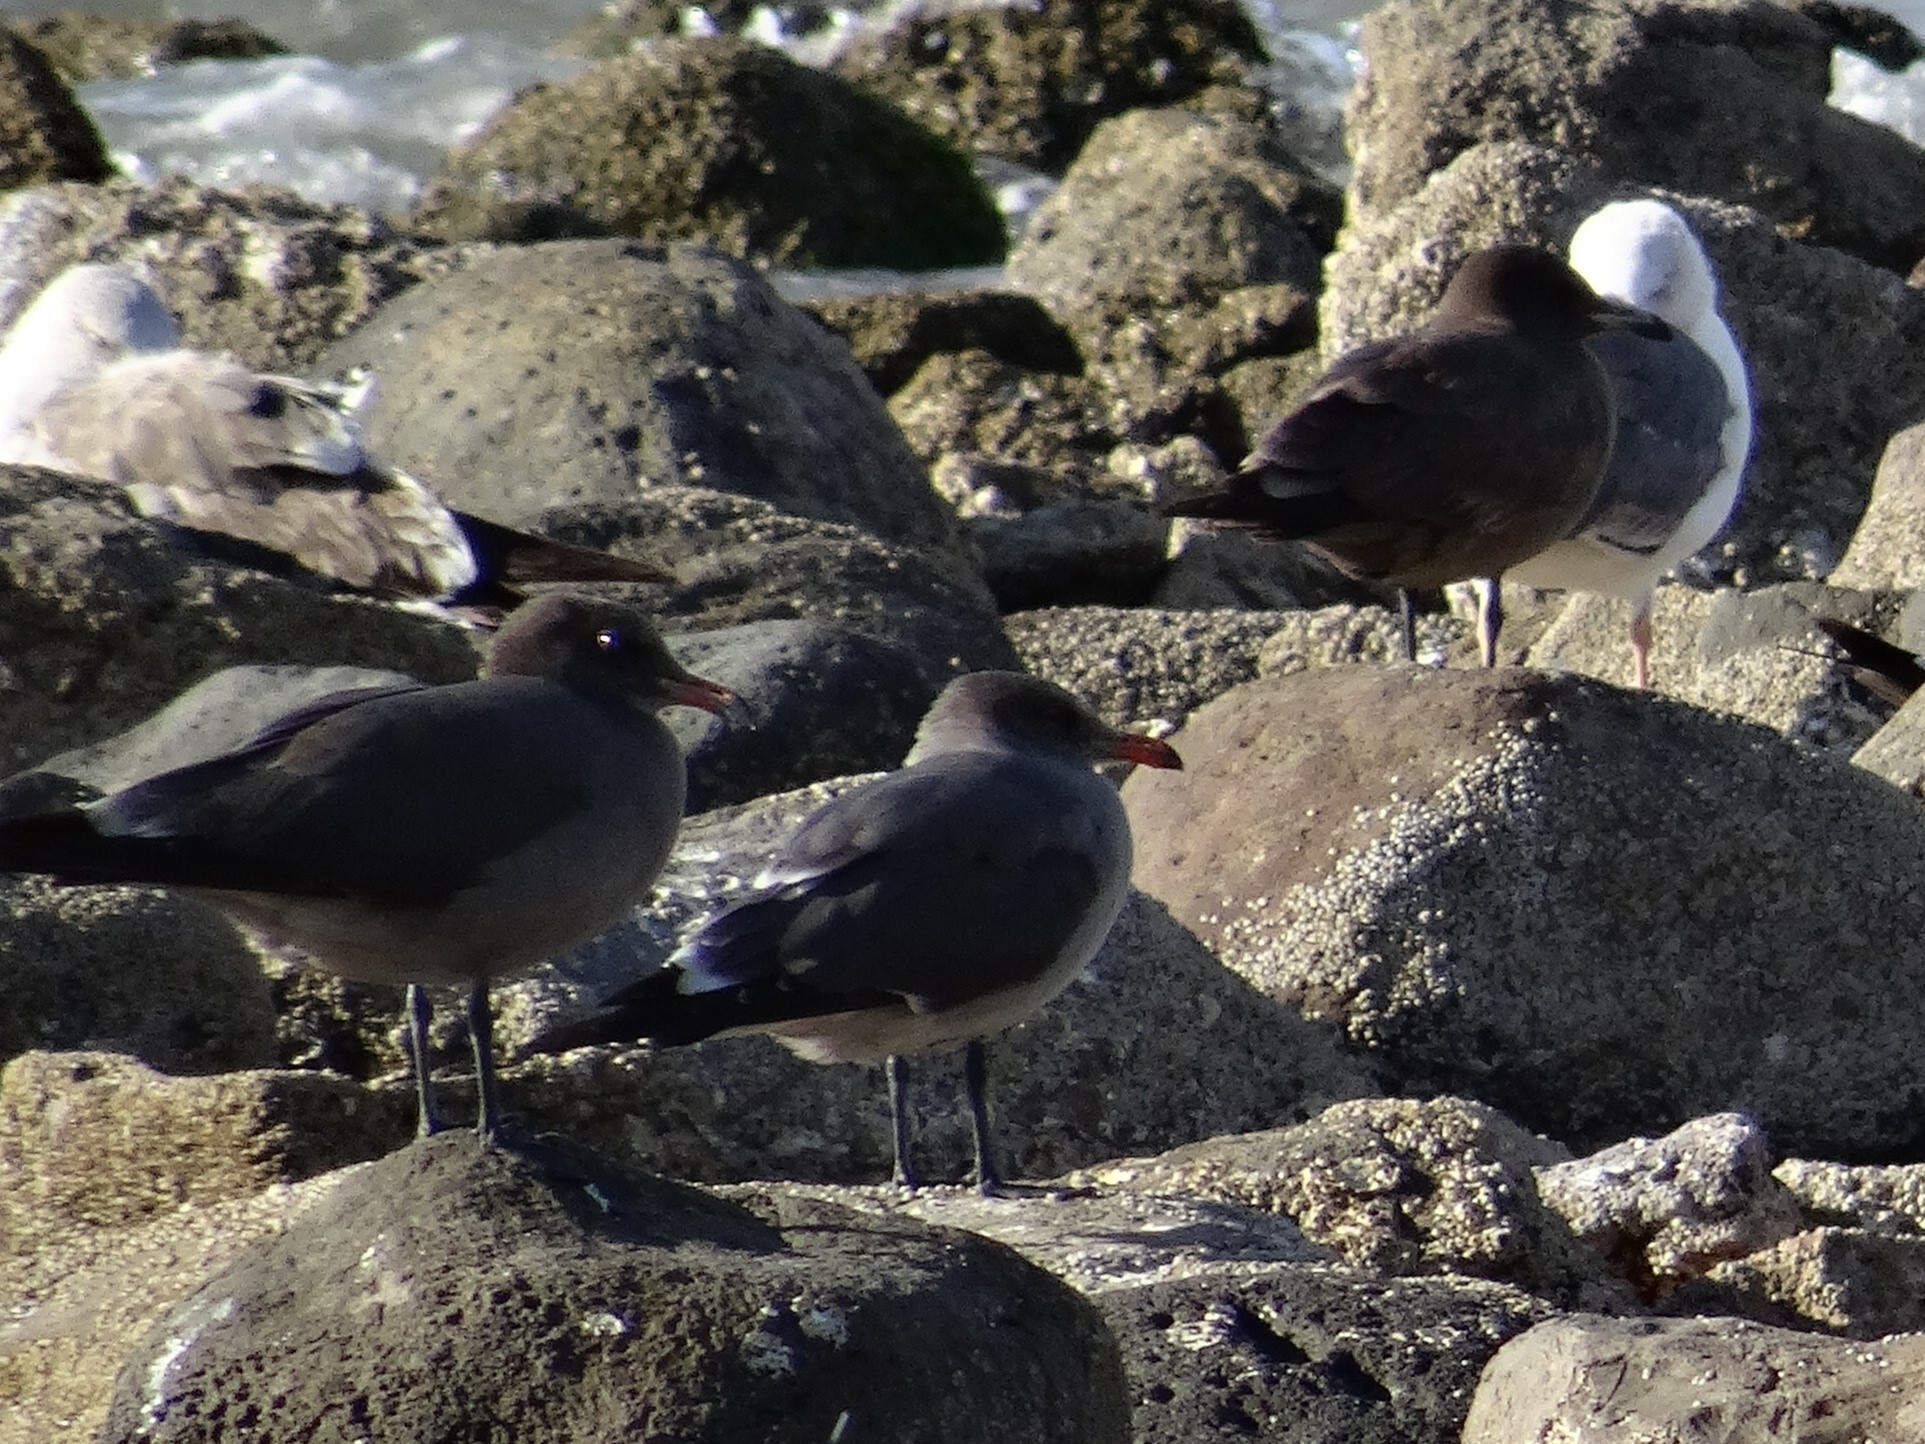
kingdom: Animalia
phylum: Chordata
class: Aves
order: Charadriiformes
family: Laridae
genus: Larus
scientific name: Larus heermanni
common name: Heermann's gull
